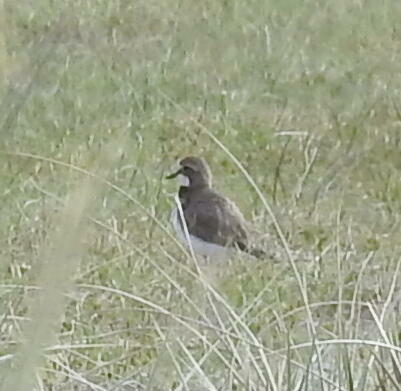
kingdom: Animalia
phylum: Chordata
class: Aves
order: Charadriiformes
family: Charadriidae
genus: Anarhynchus
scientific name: Anarhynchus
